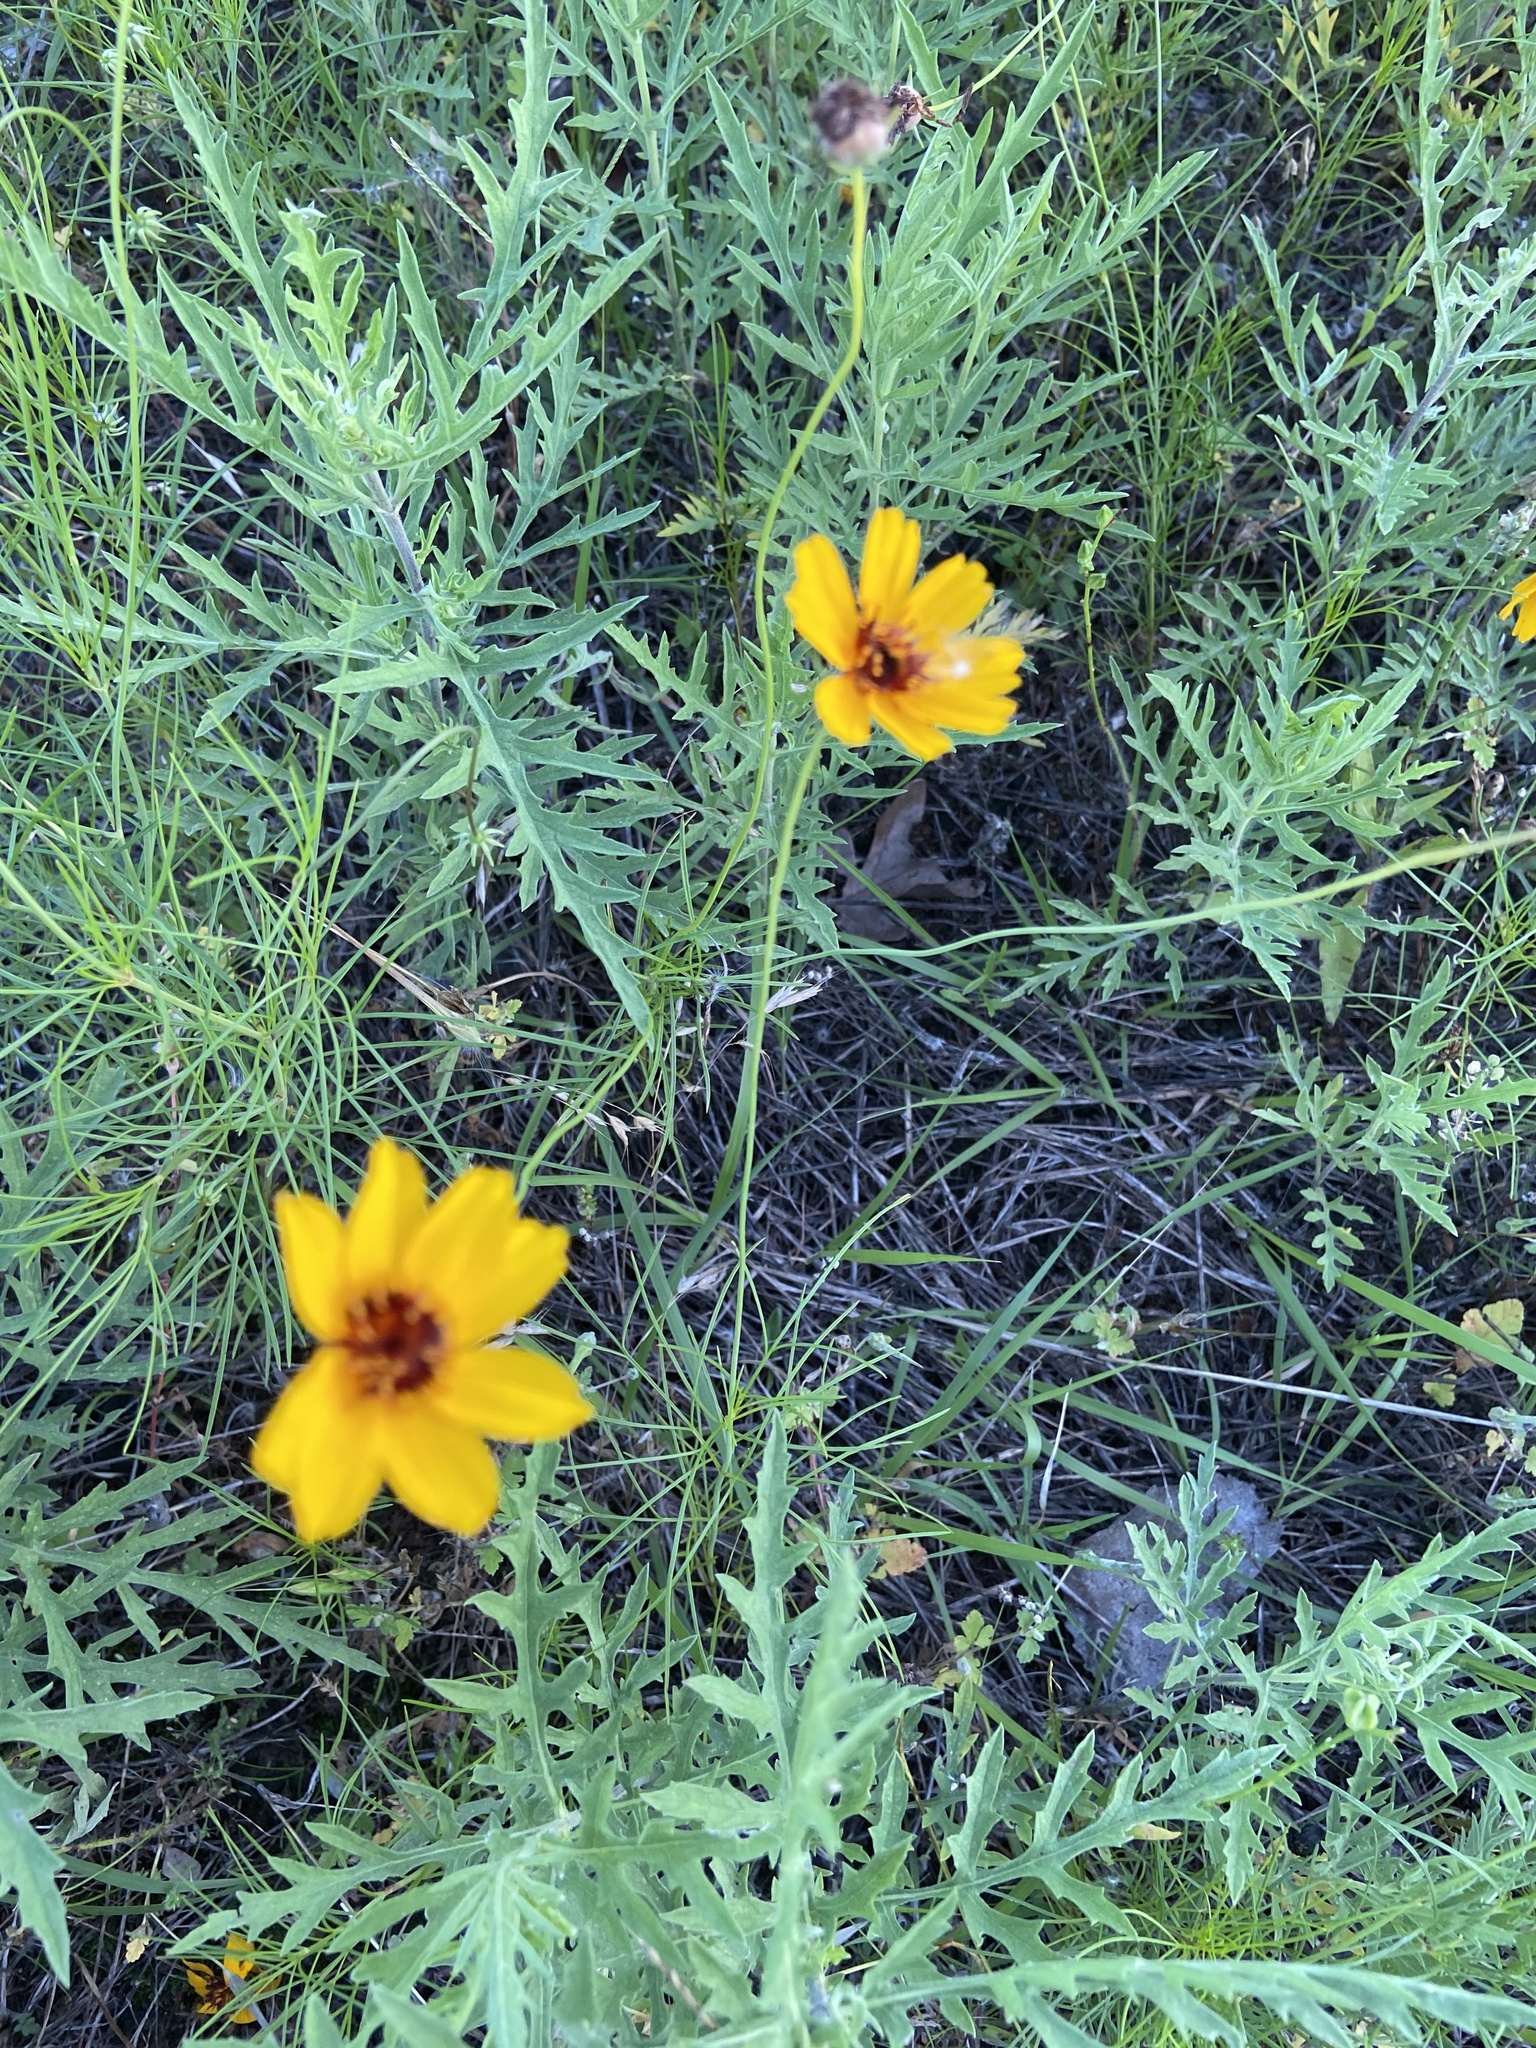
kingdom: Plantae
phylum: Tracheophyta
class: Magnoliopsida
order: Asterales
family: Asteraceae
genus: Thelesperma
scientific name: Thelesperma filifolium
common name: Stiff greenthread
